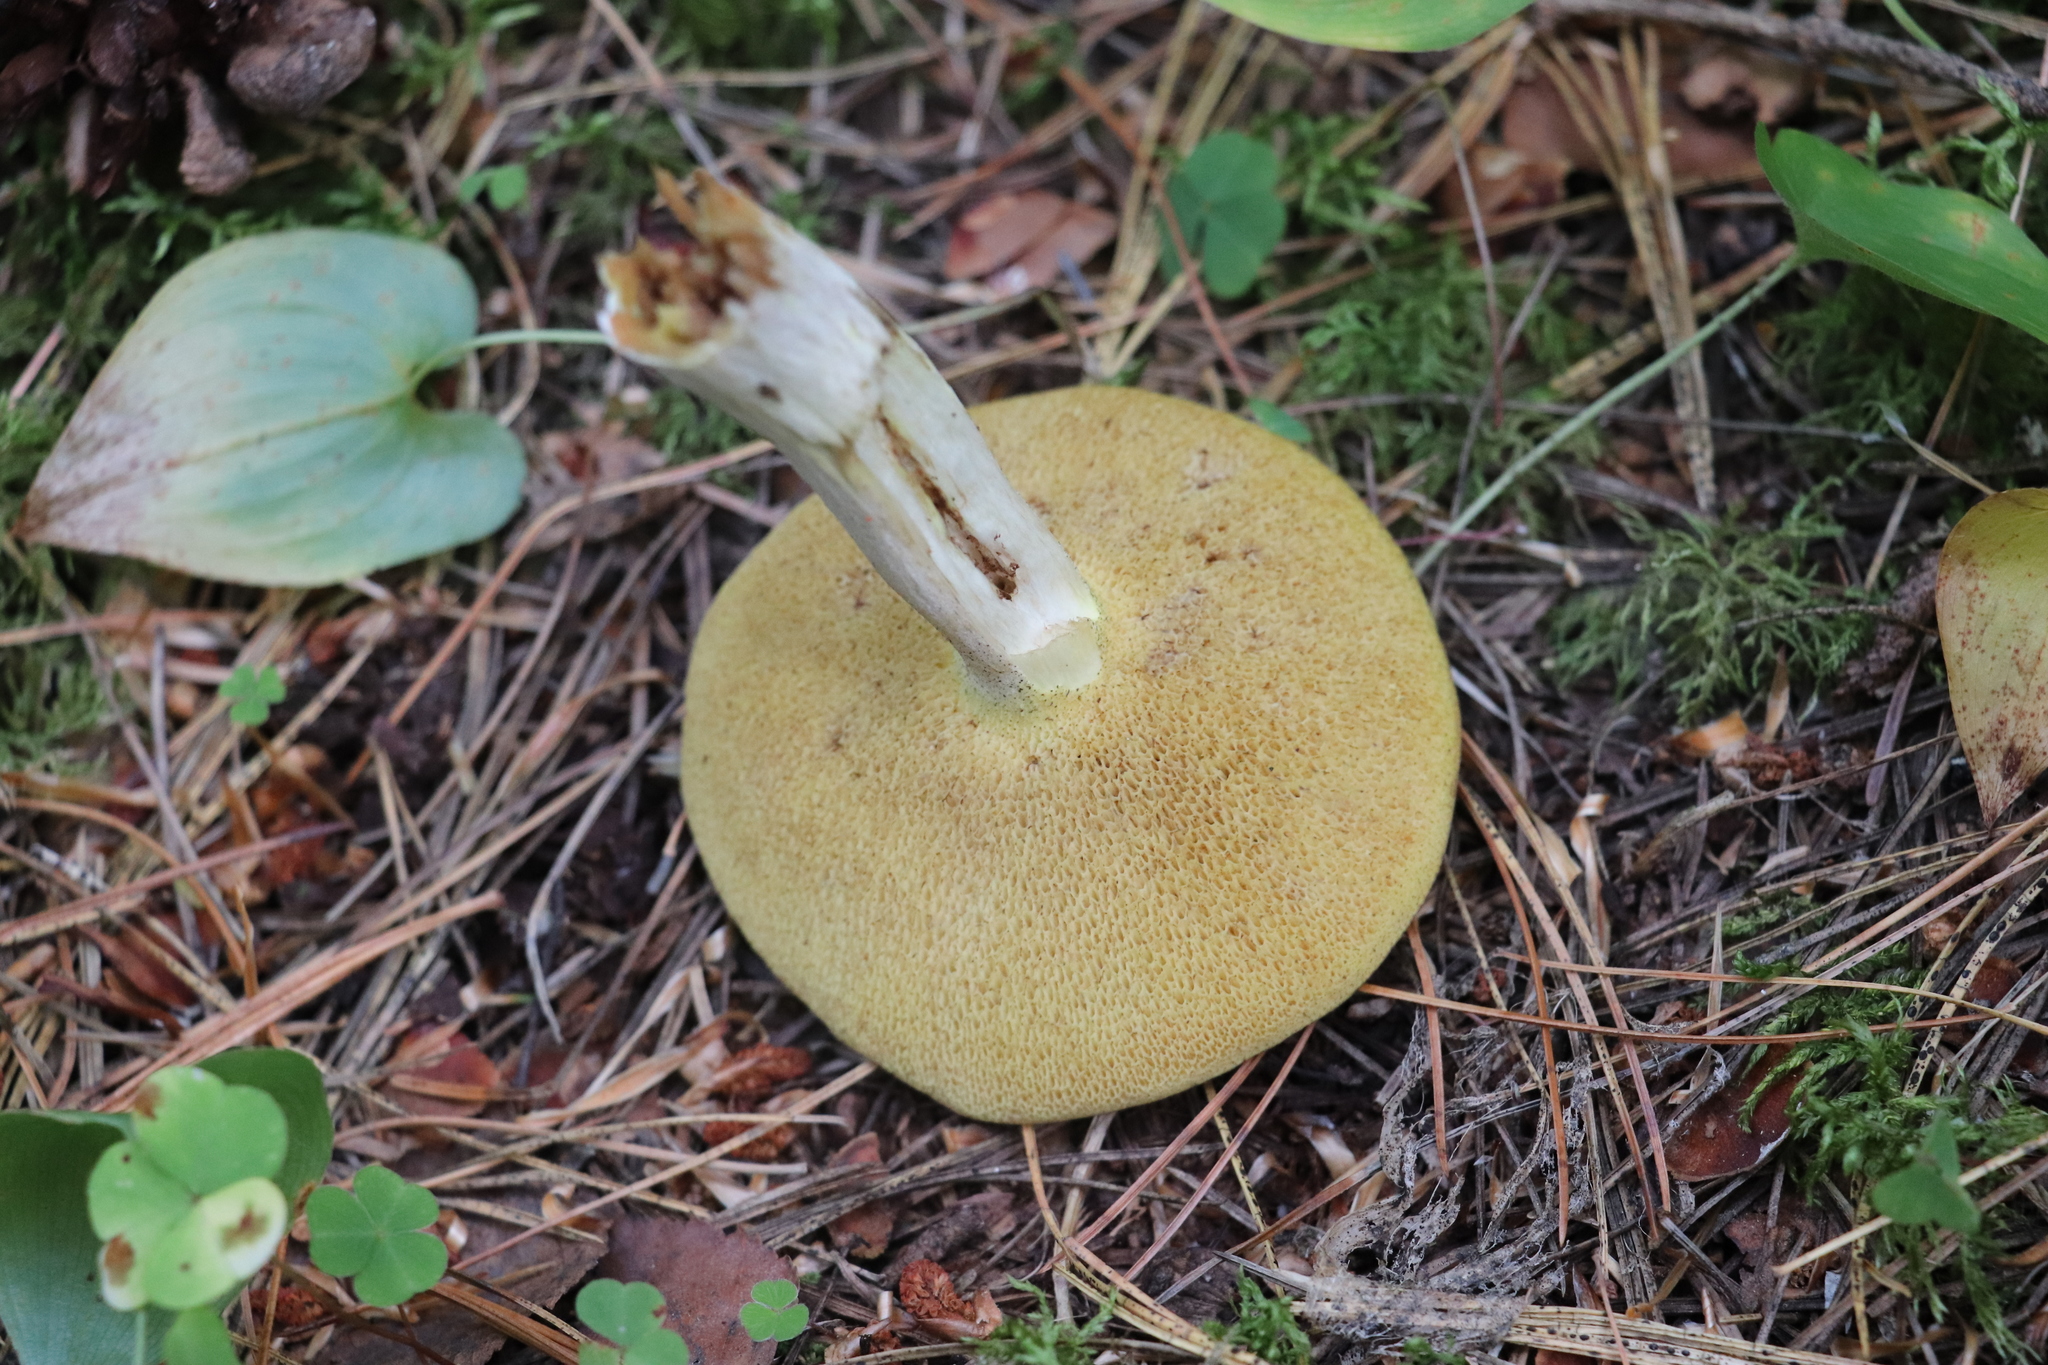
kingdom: Fungi
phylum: Basidiomycota
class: Agaricomycetes
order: Boletales
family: Suillaceae
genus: Suillus
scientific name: Suillus placidus
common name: Slippery white bolete
